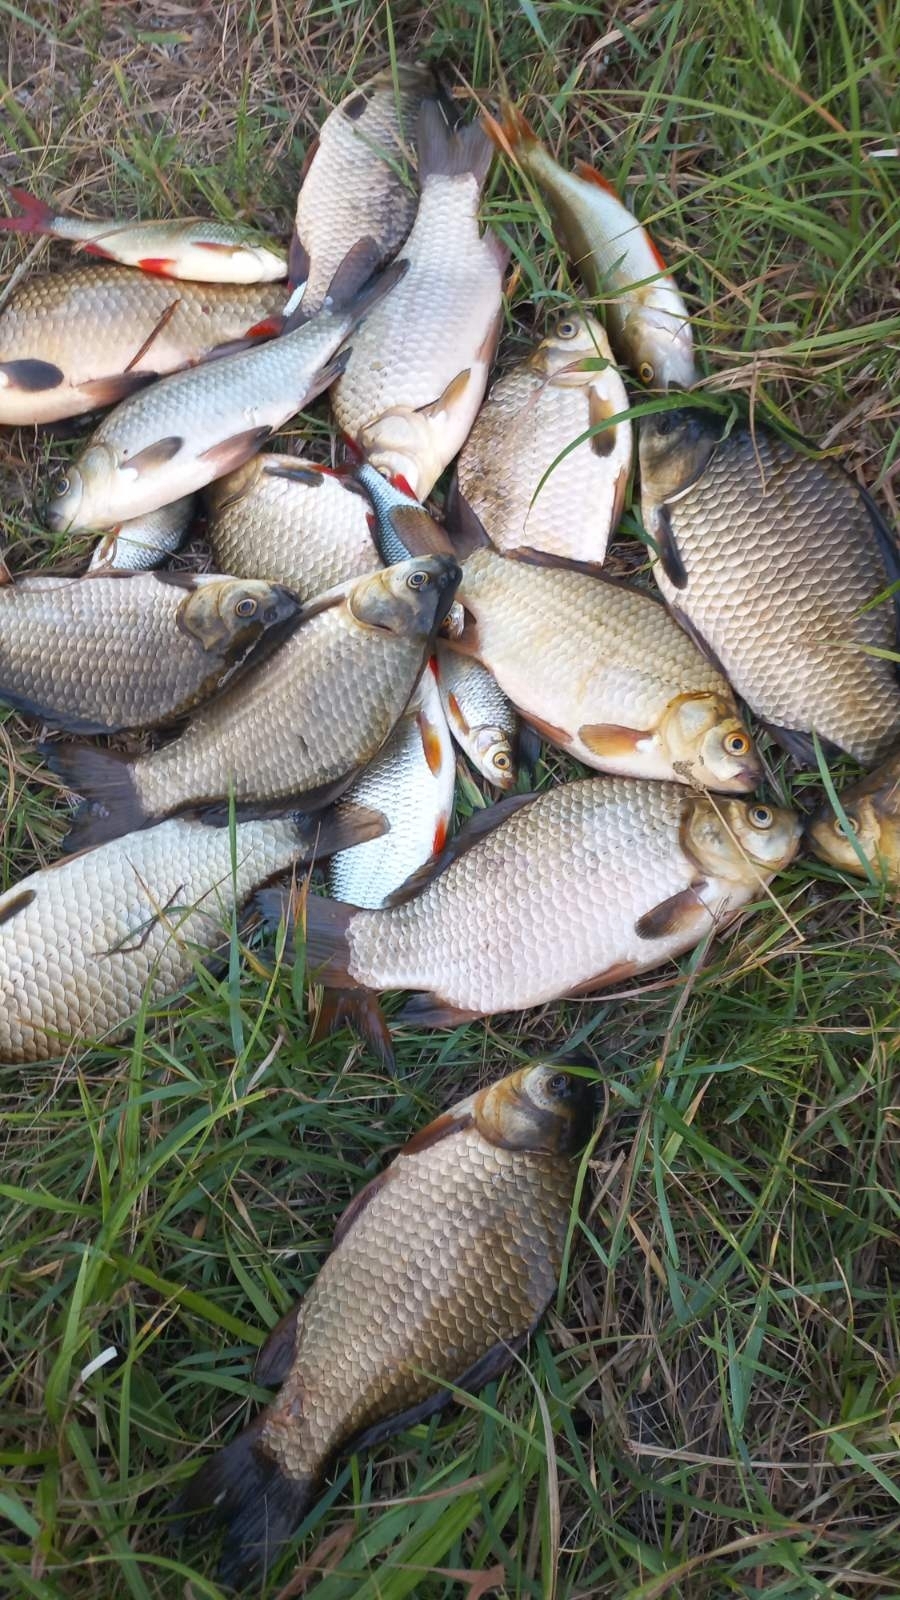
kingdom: Animalia
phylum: Chordata
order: Cypriniformes
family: Cyprinidae
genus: Carassius
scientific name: Carassius gibelio
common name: Prussian carp
